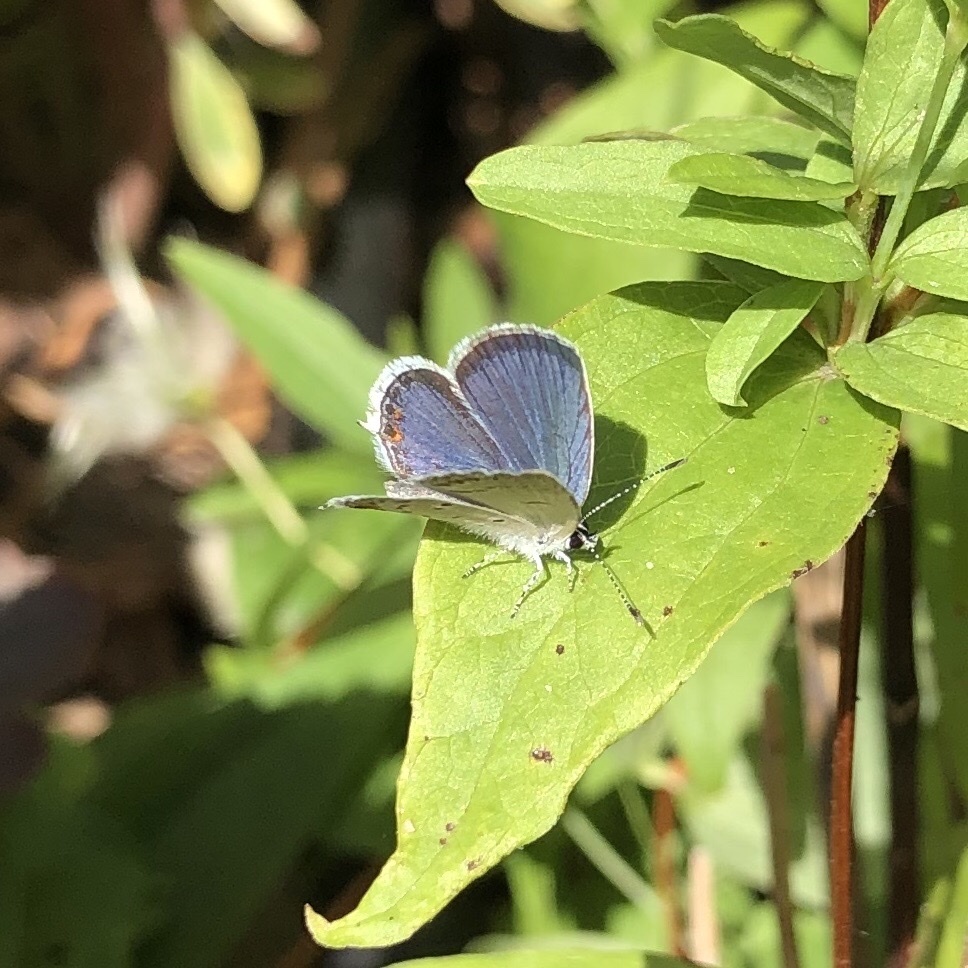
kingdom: Animalia
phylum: Arthropoda
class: Insecta
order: Lepidoptera
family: Lycaenidae
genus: Elkalyce
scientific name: Elkalyce comyntas
